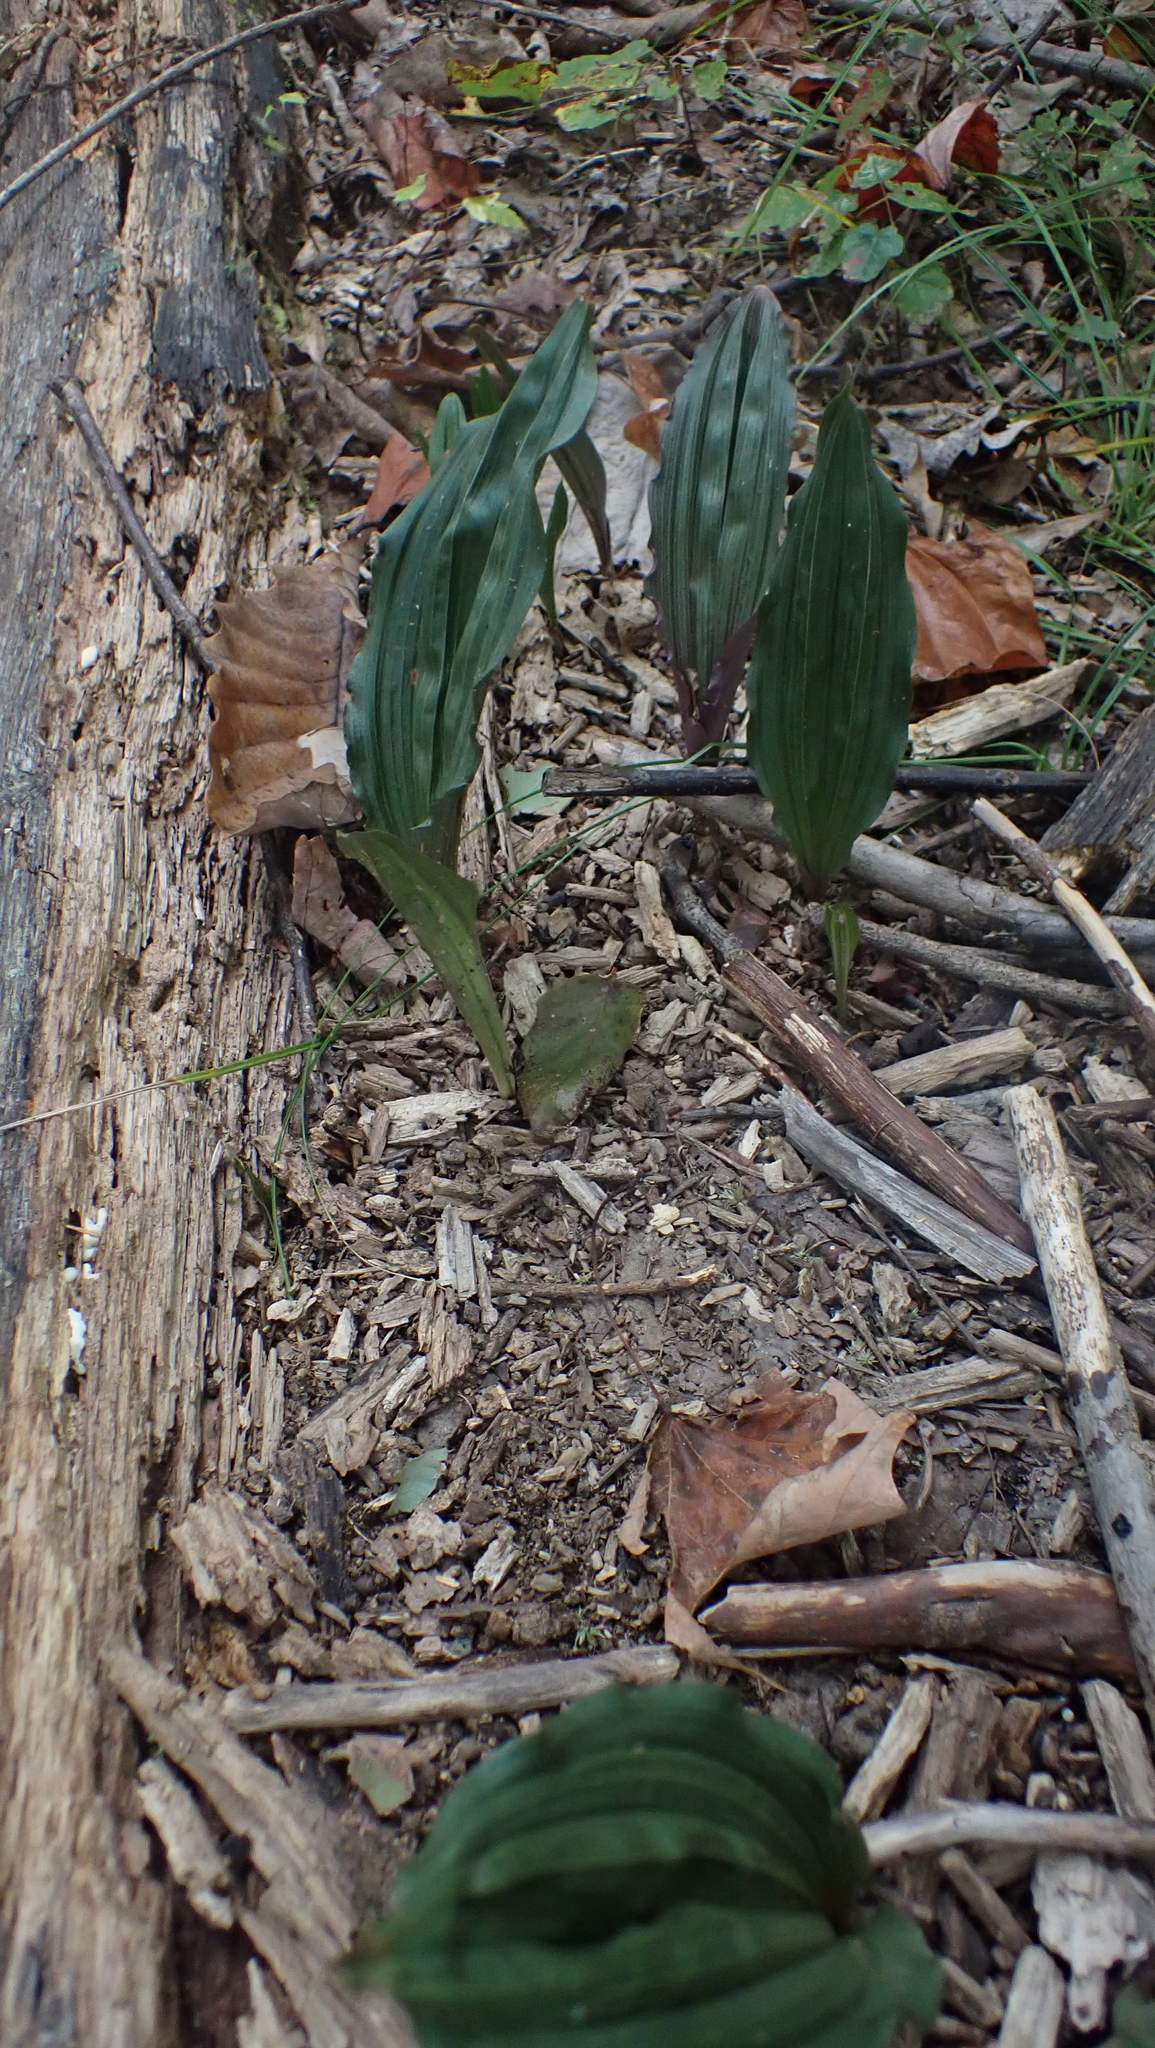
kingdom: Plantae
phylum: Tracheophyta
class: Liliopsida
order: Asparagales
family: Orchidaceae
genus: Aplectrum
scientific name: Aplectrum hyemale
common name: Adam-and-eve
